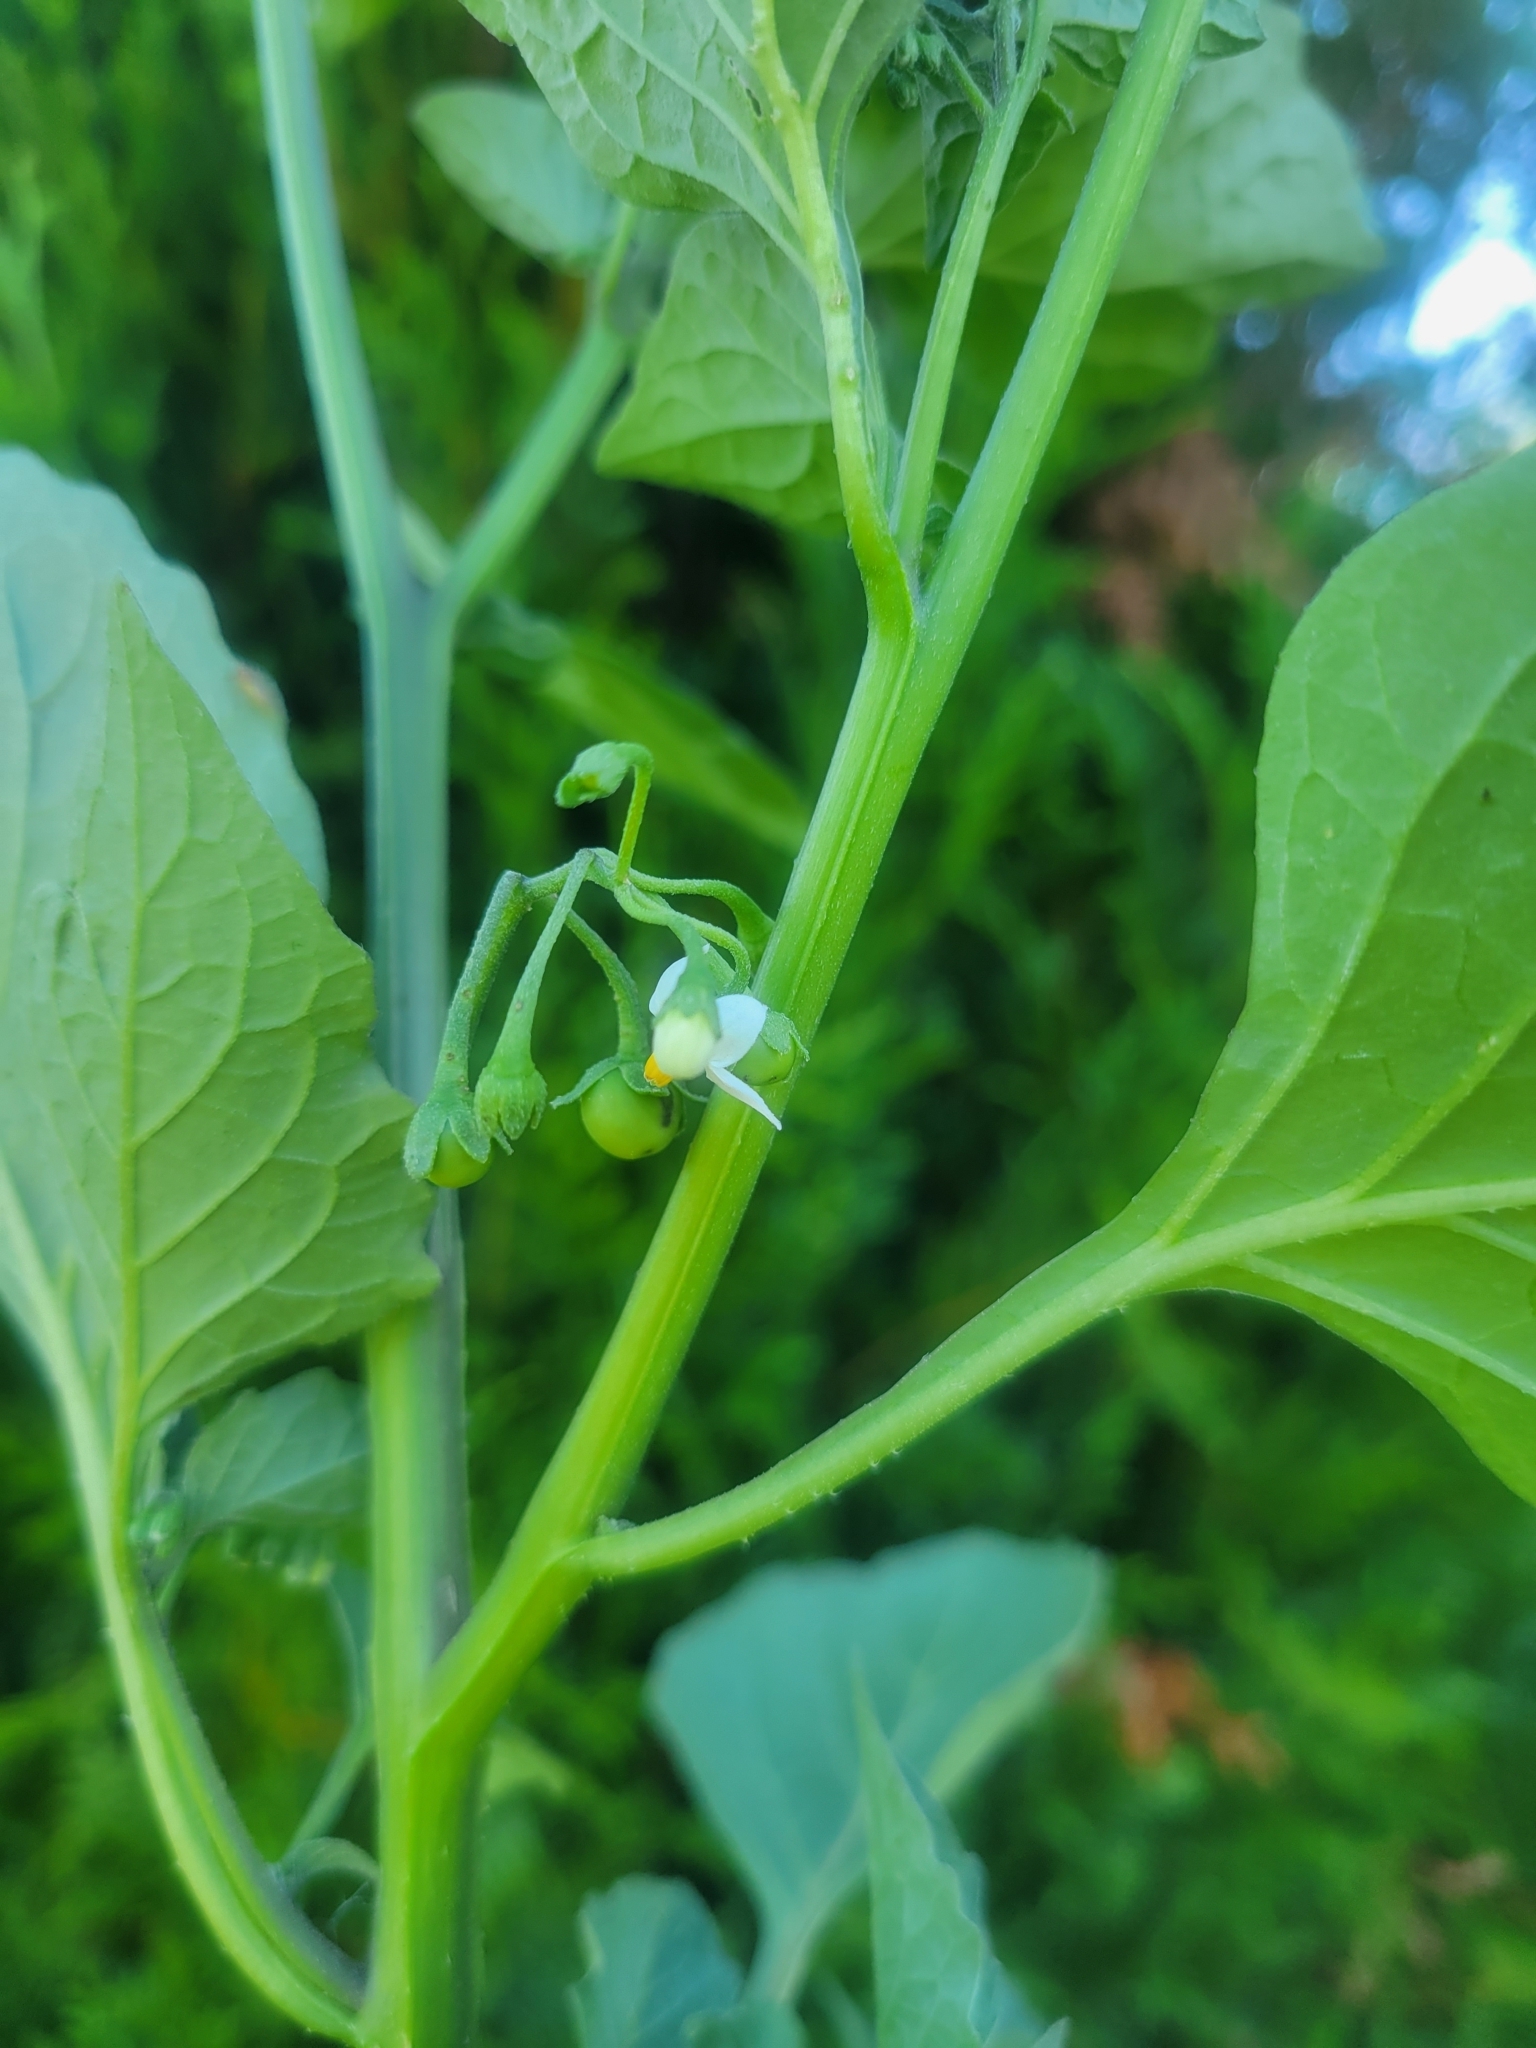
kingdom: Plantae
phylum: Tracheophyta
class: Magnoliopsida
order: Solanales
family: Solanaceae
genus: Solanum
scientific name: Solanum nigrum
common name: Black nightshade
